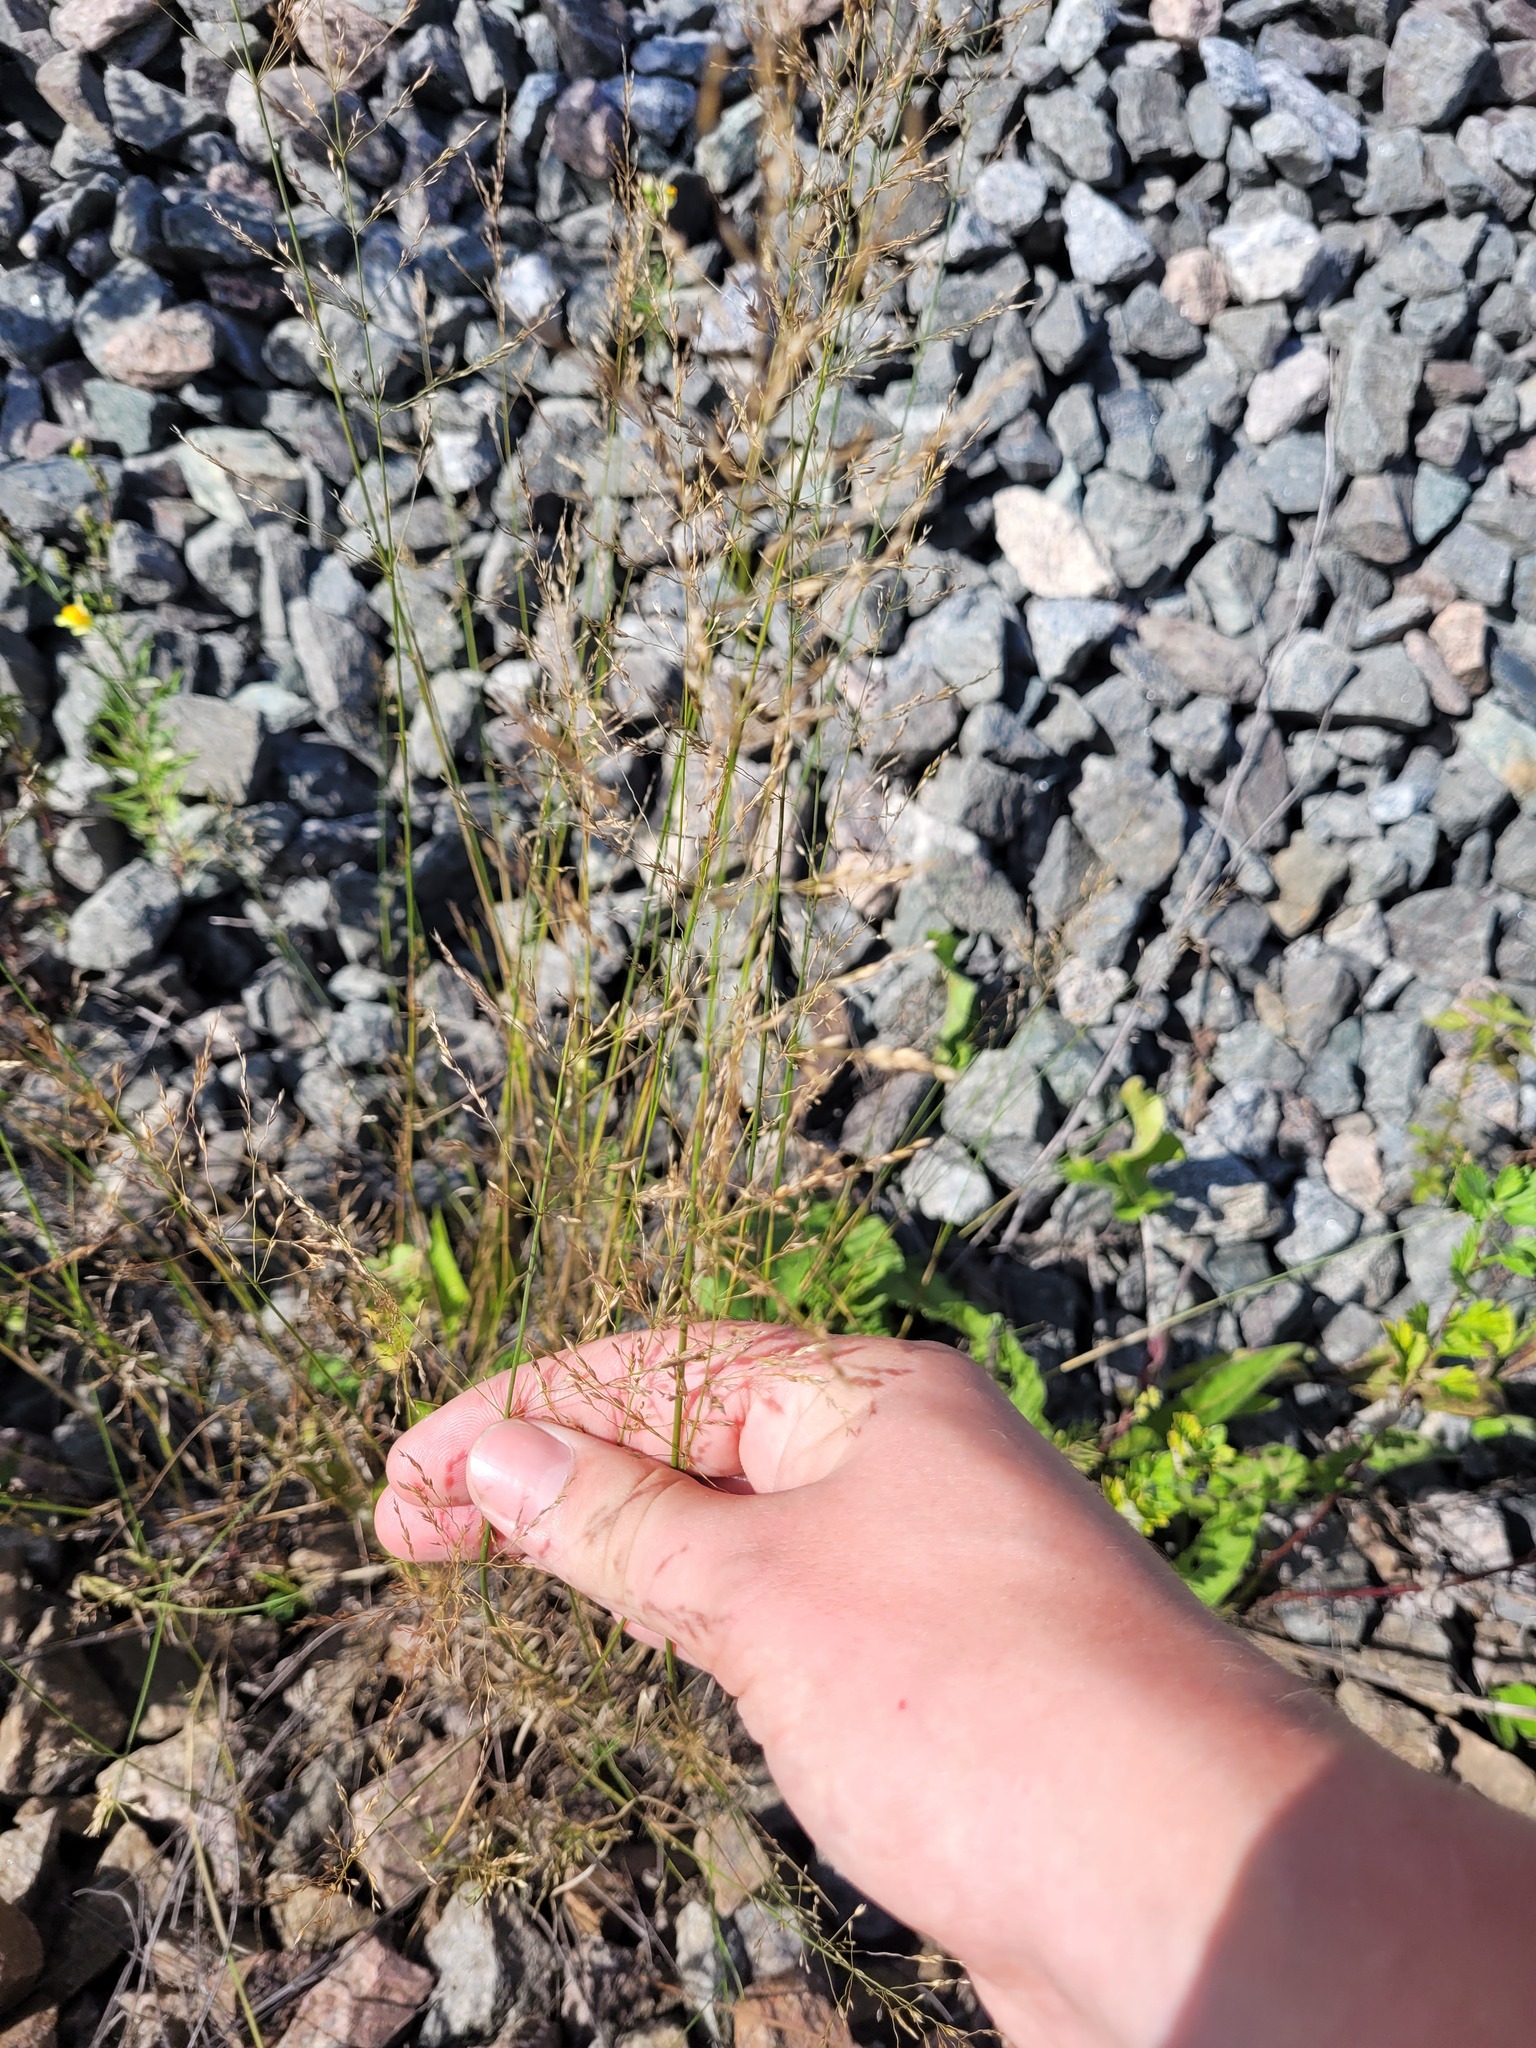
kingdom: Plantae
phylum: Tracheophyta
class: Liliopsida
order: Poales
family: Poaceae
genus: Poa
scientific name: Poa palustris
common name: Swamp meadow-grass
